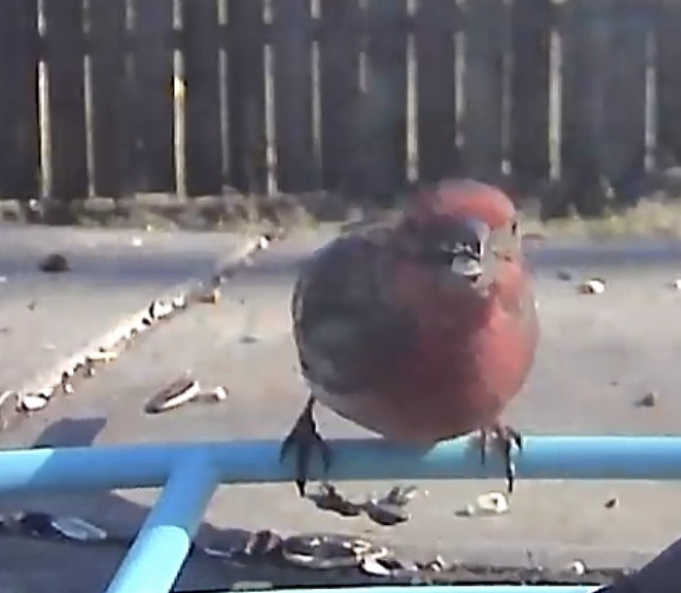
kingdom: Animalia
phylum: Chordata
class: Aves
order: Passeriformes
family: Fringillidae
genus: Haemorhous
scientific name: Haemorhous mexicanus
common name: House finch
